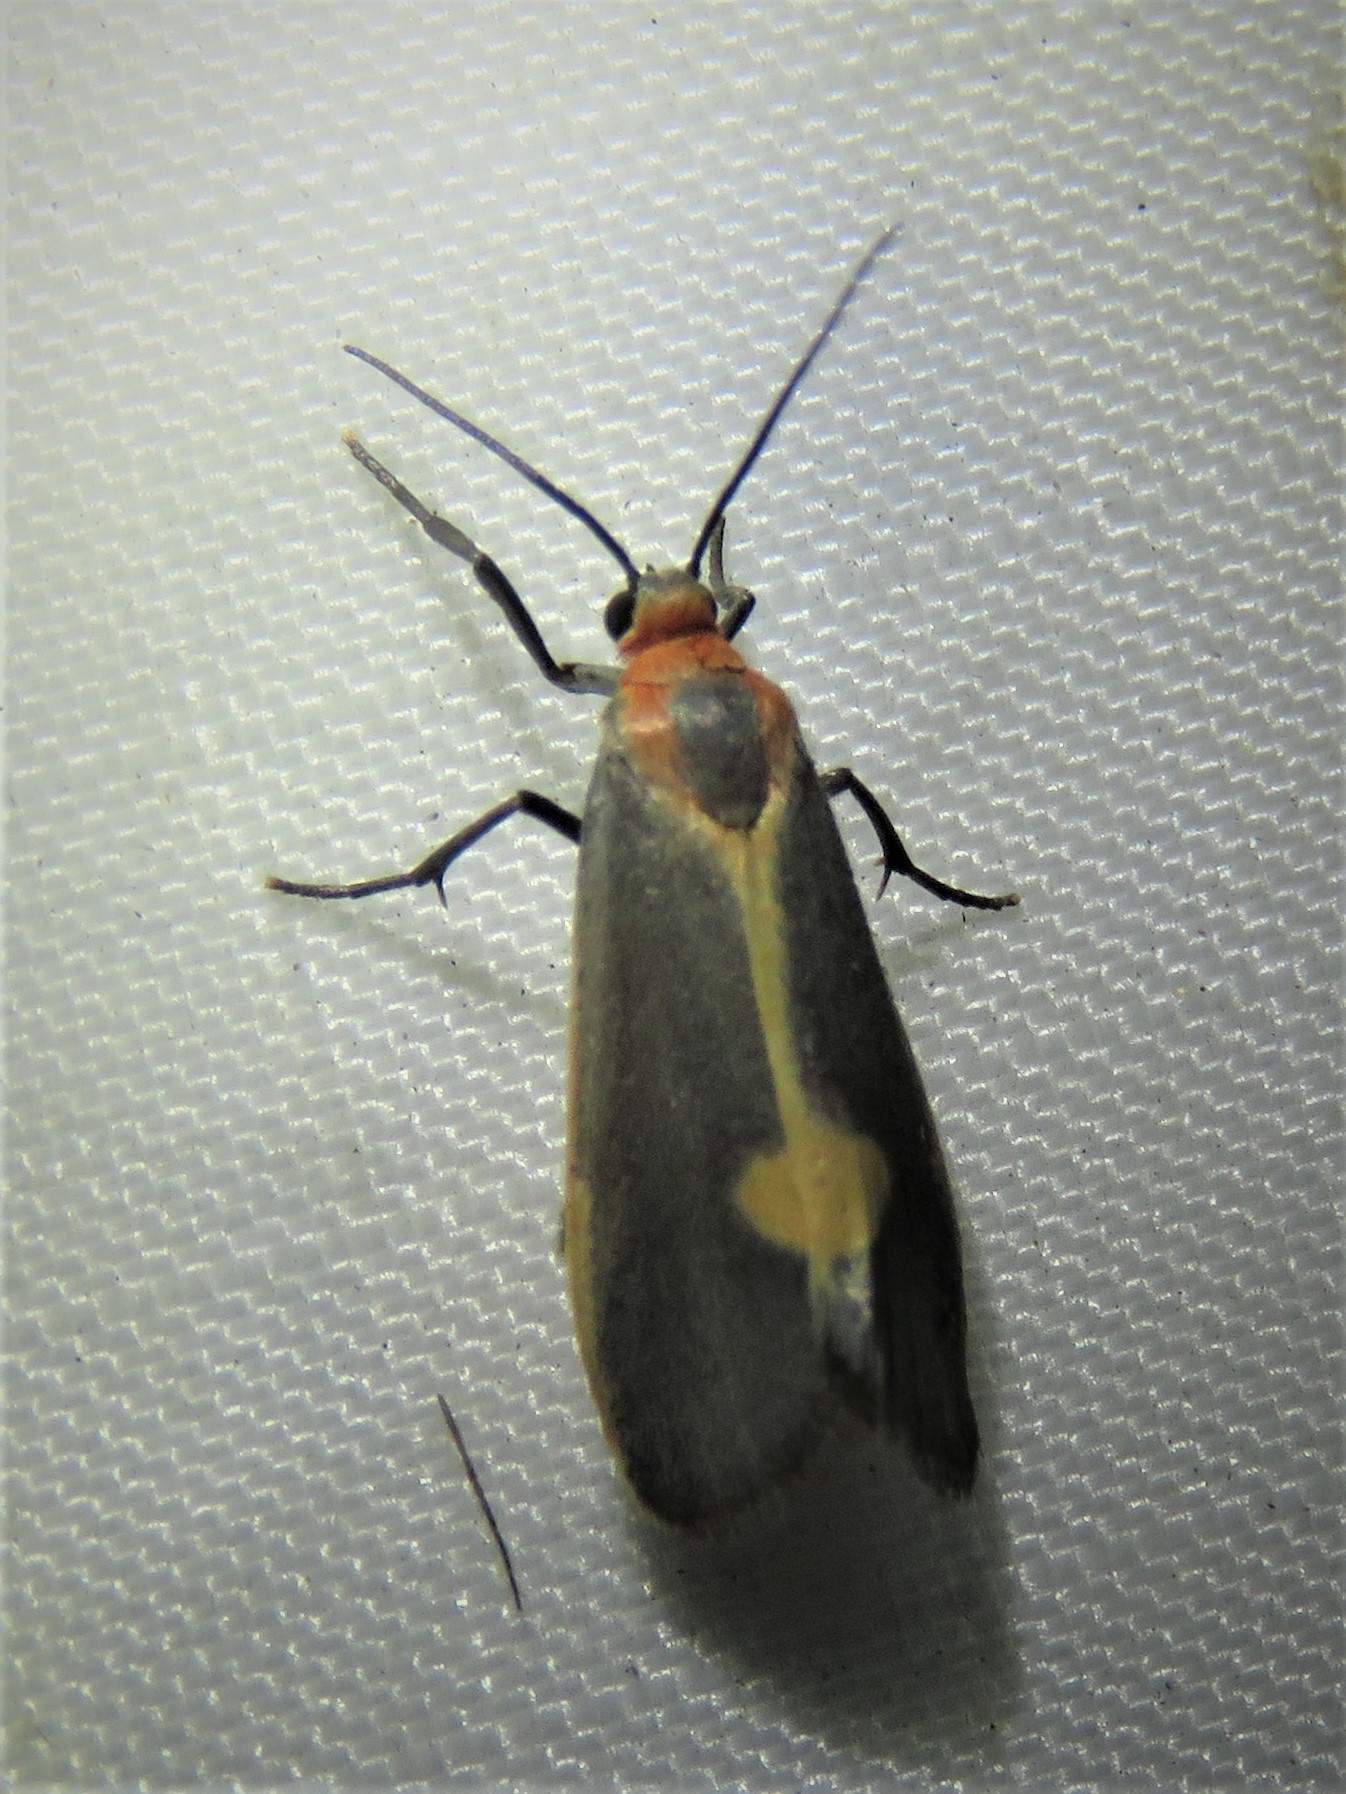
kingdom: Animalia
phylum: Arthropoda
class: Insecta
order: Lepidoptera
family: Erebidae
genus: Cisthene
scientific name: Cisthene plumbea
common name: Lead colored lichen moth
